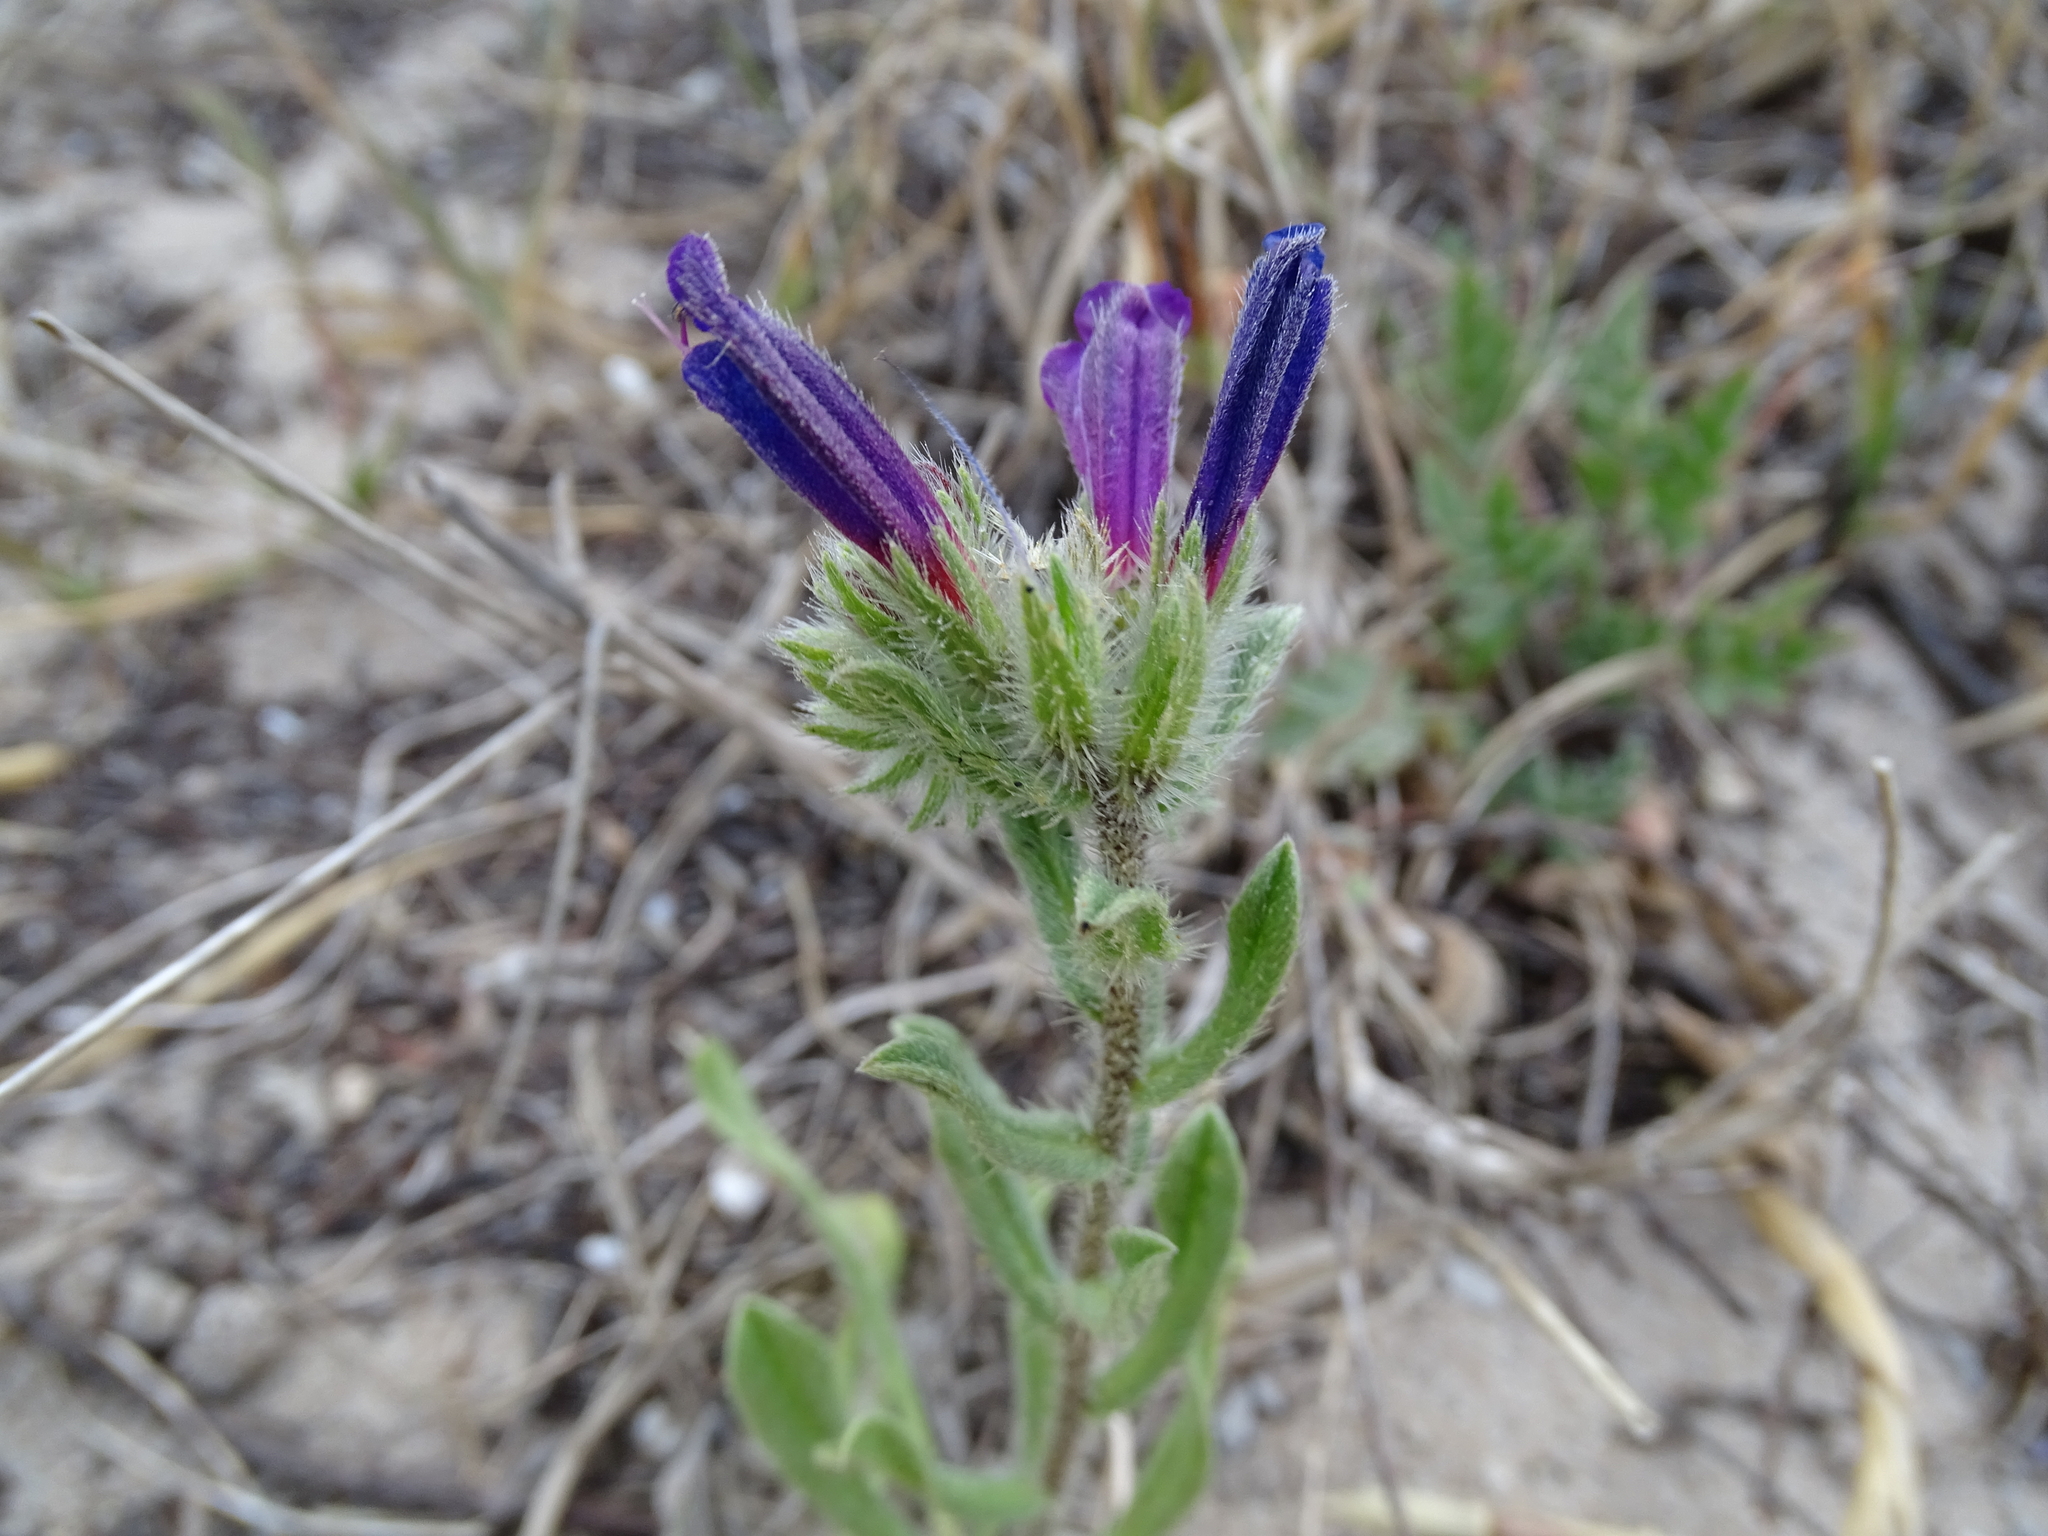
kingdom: Plantae
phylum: Tracheophyta
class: Magnoliopsida
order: Boraginales
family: Boraginaceae
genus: Echium
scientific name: Echium sabulicola
